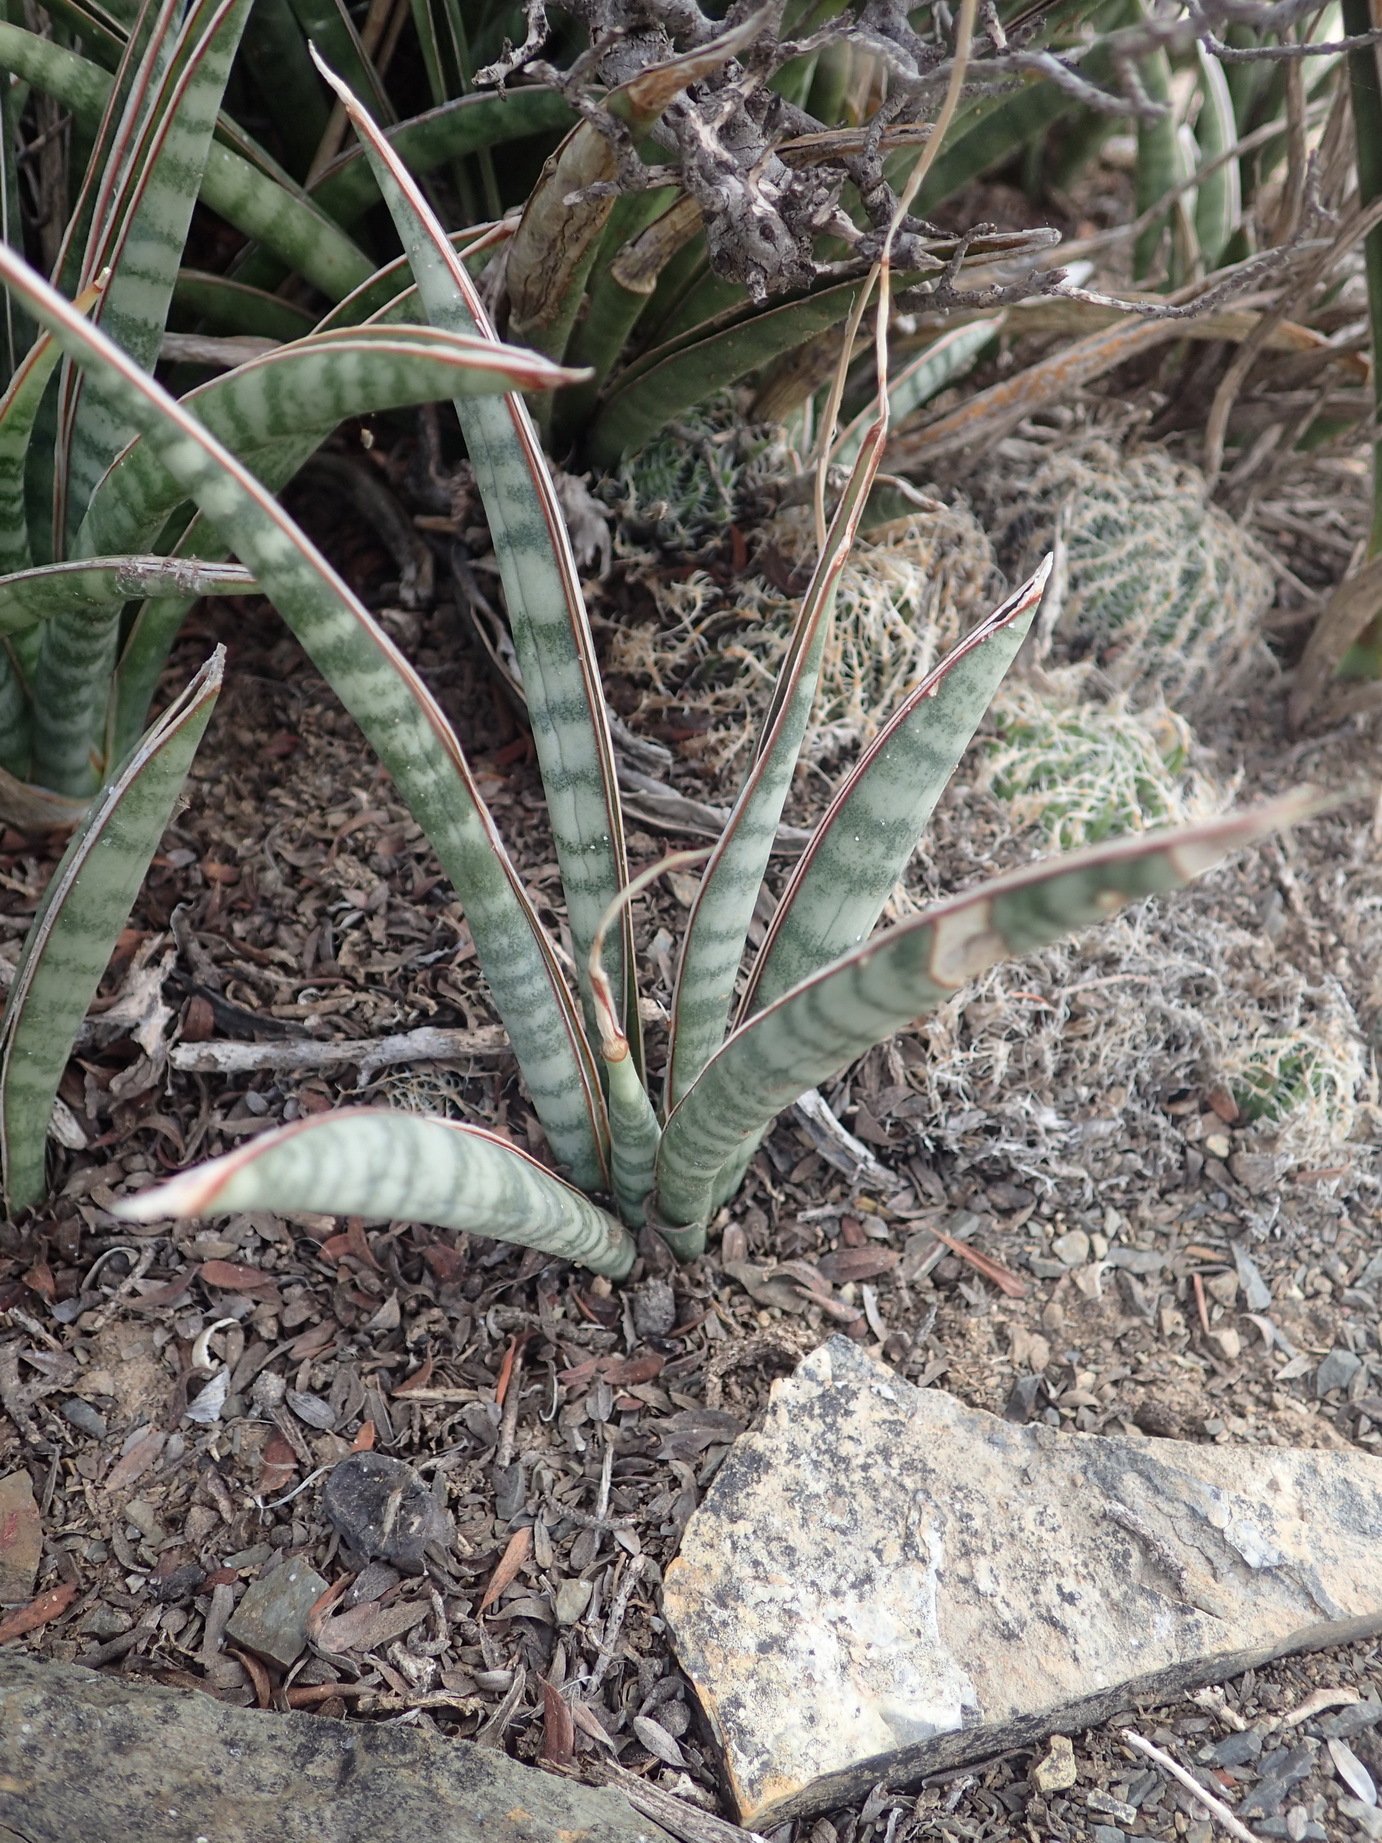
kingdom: Plantae
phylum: Tracheophyta
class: Liliopsida
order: Asparagales
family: Asparagaceae
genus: Dracaena
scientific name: Dracaena hyacinthoides
